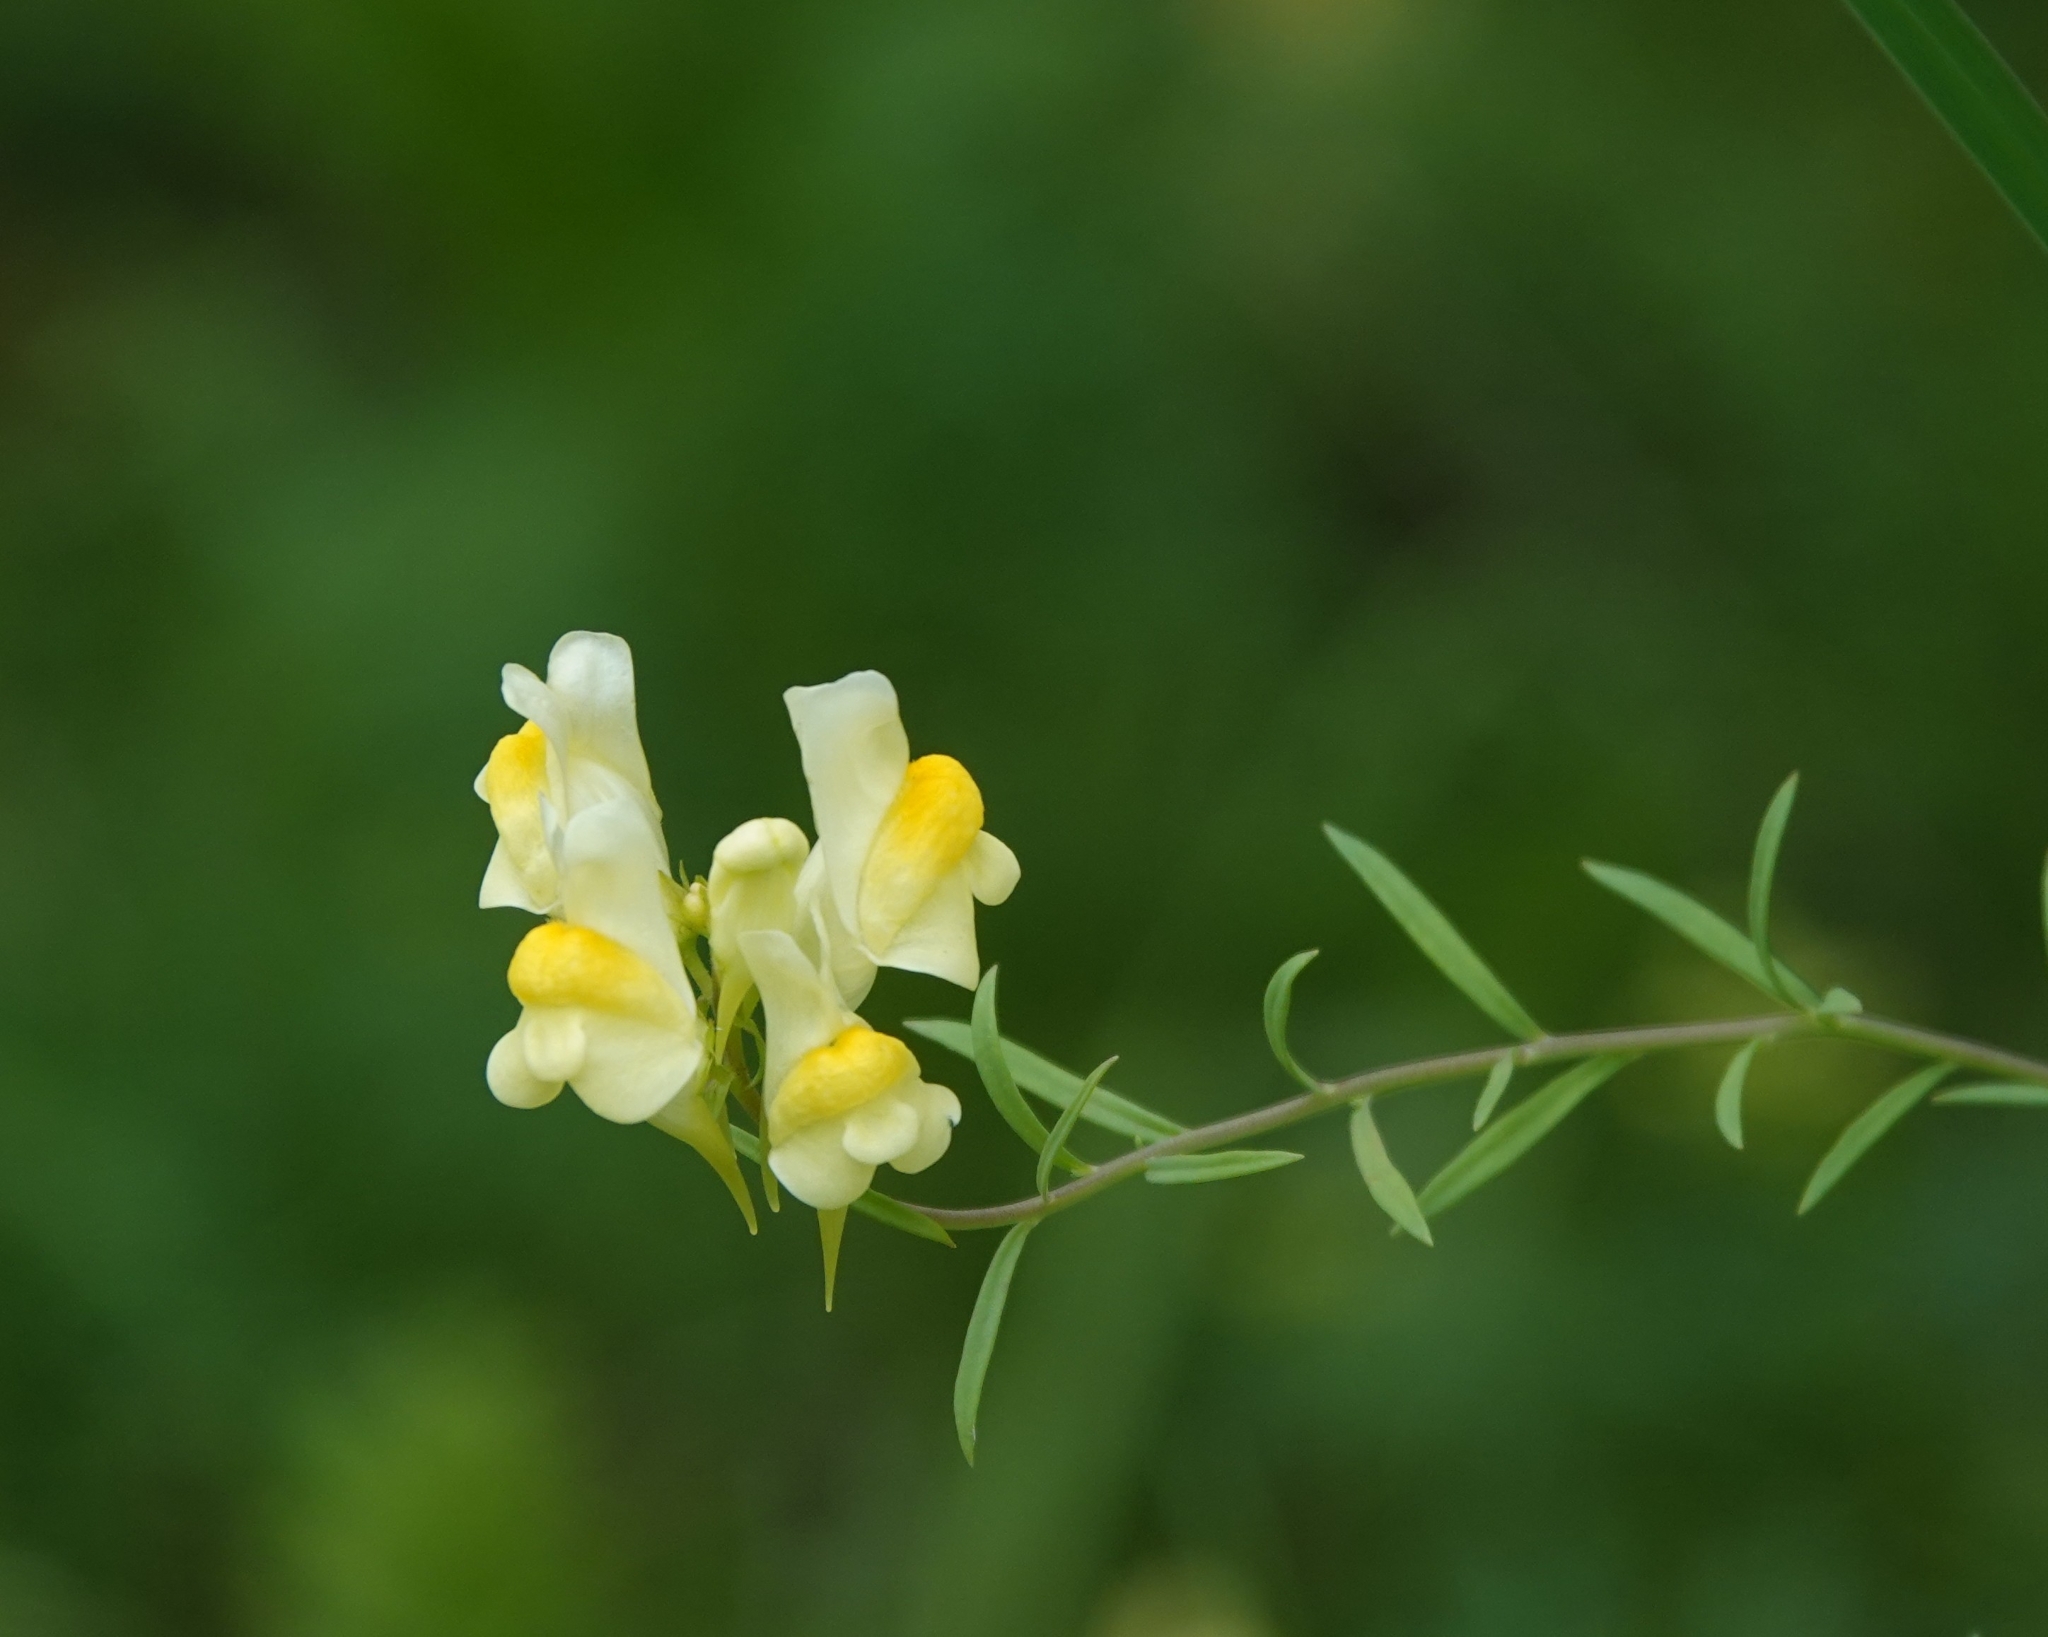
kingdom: Plantae
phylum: Tracheophyta
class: Magnoliopsida
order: Lamiales
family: Plantaginaceae
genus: Linaria
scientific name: Linaria vulgaris
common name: Butter and eggs
